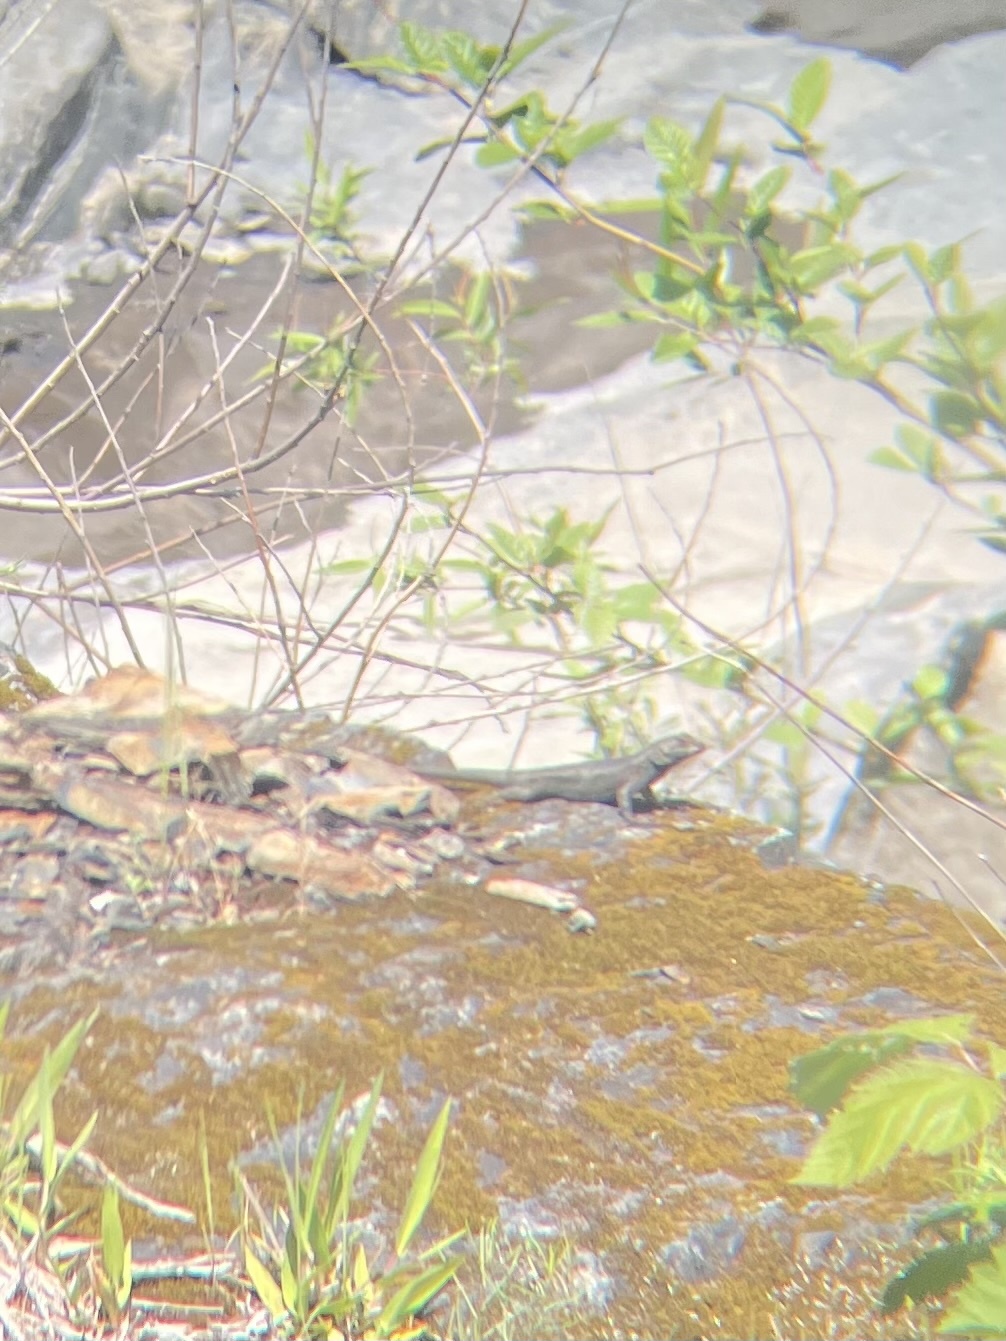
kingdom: Animalia
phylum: Chordata
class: Squamata
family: Phrynosomatidae
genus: Sceloporus
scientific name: Sceloporus occidentalis
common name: Western fence lizard
